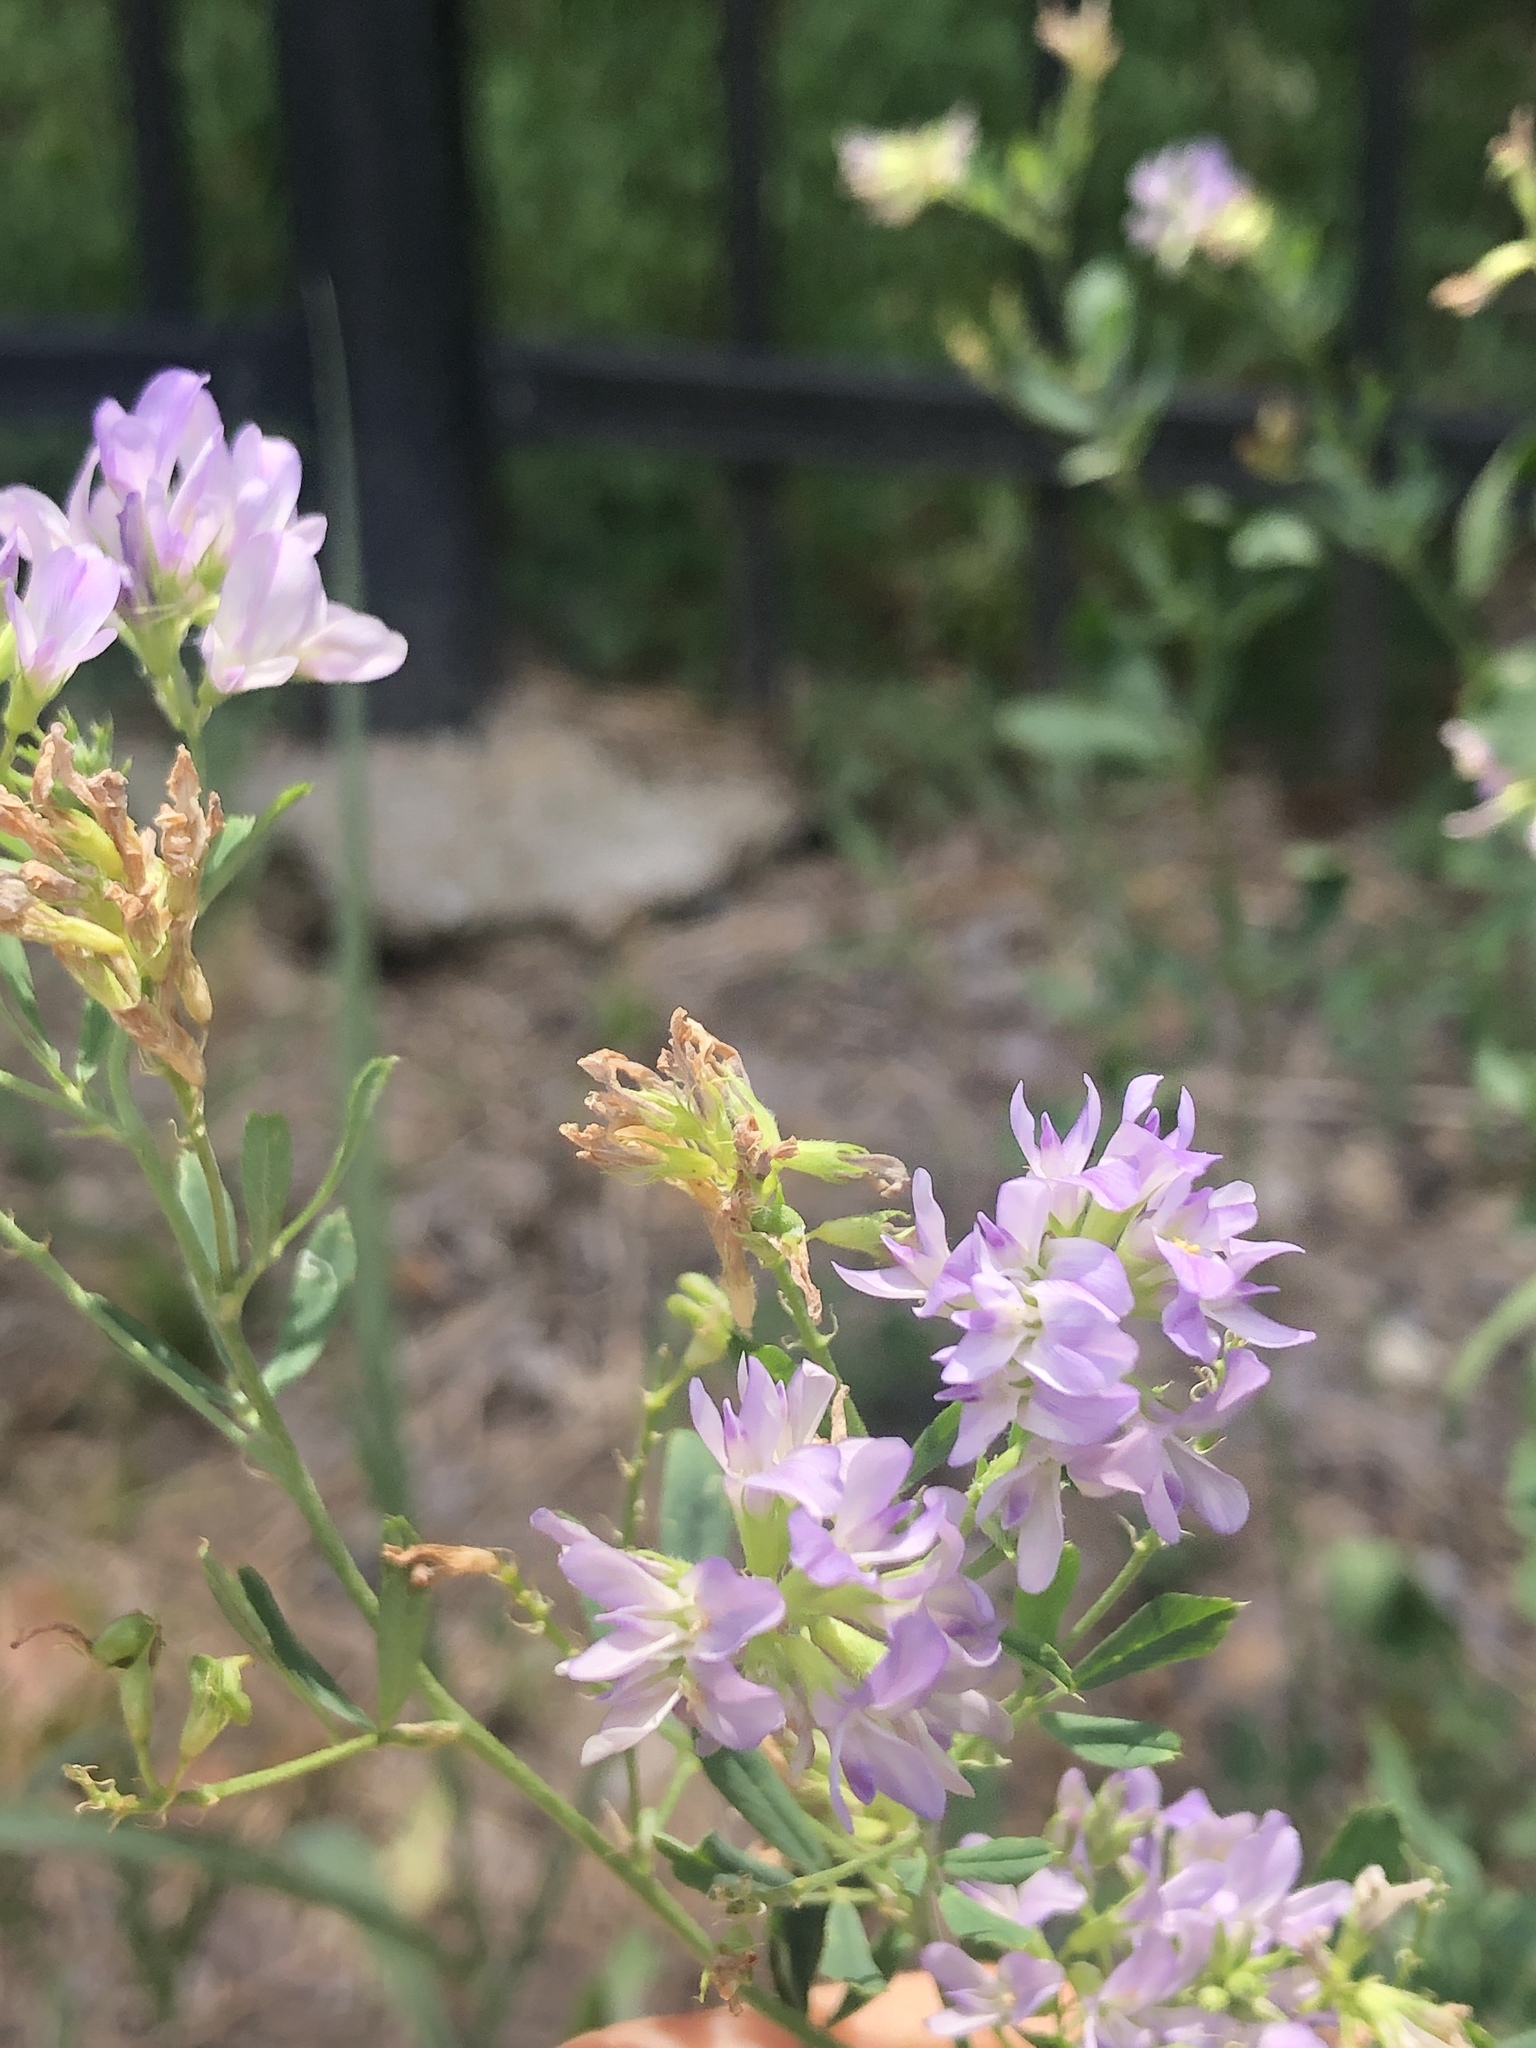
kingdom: Plantae
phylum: Tracheophyta
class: Magnoliopsida
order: Fabales
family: Fabaceae
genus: Medicago
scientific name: Medicago sativa
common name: Alfalfa
